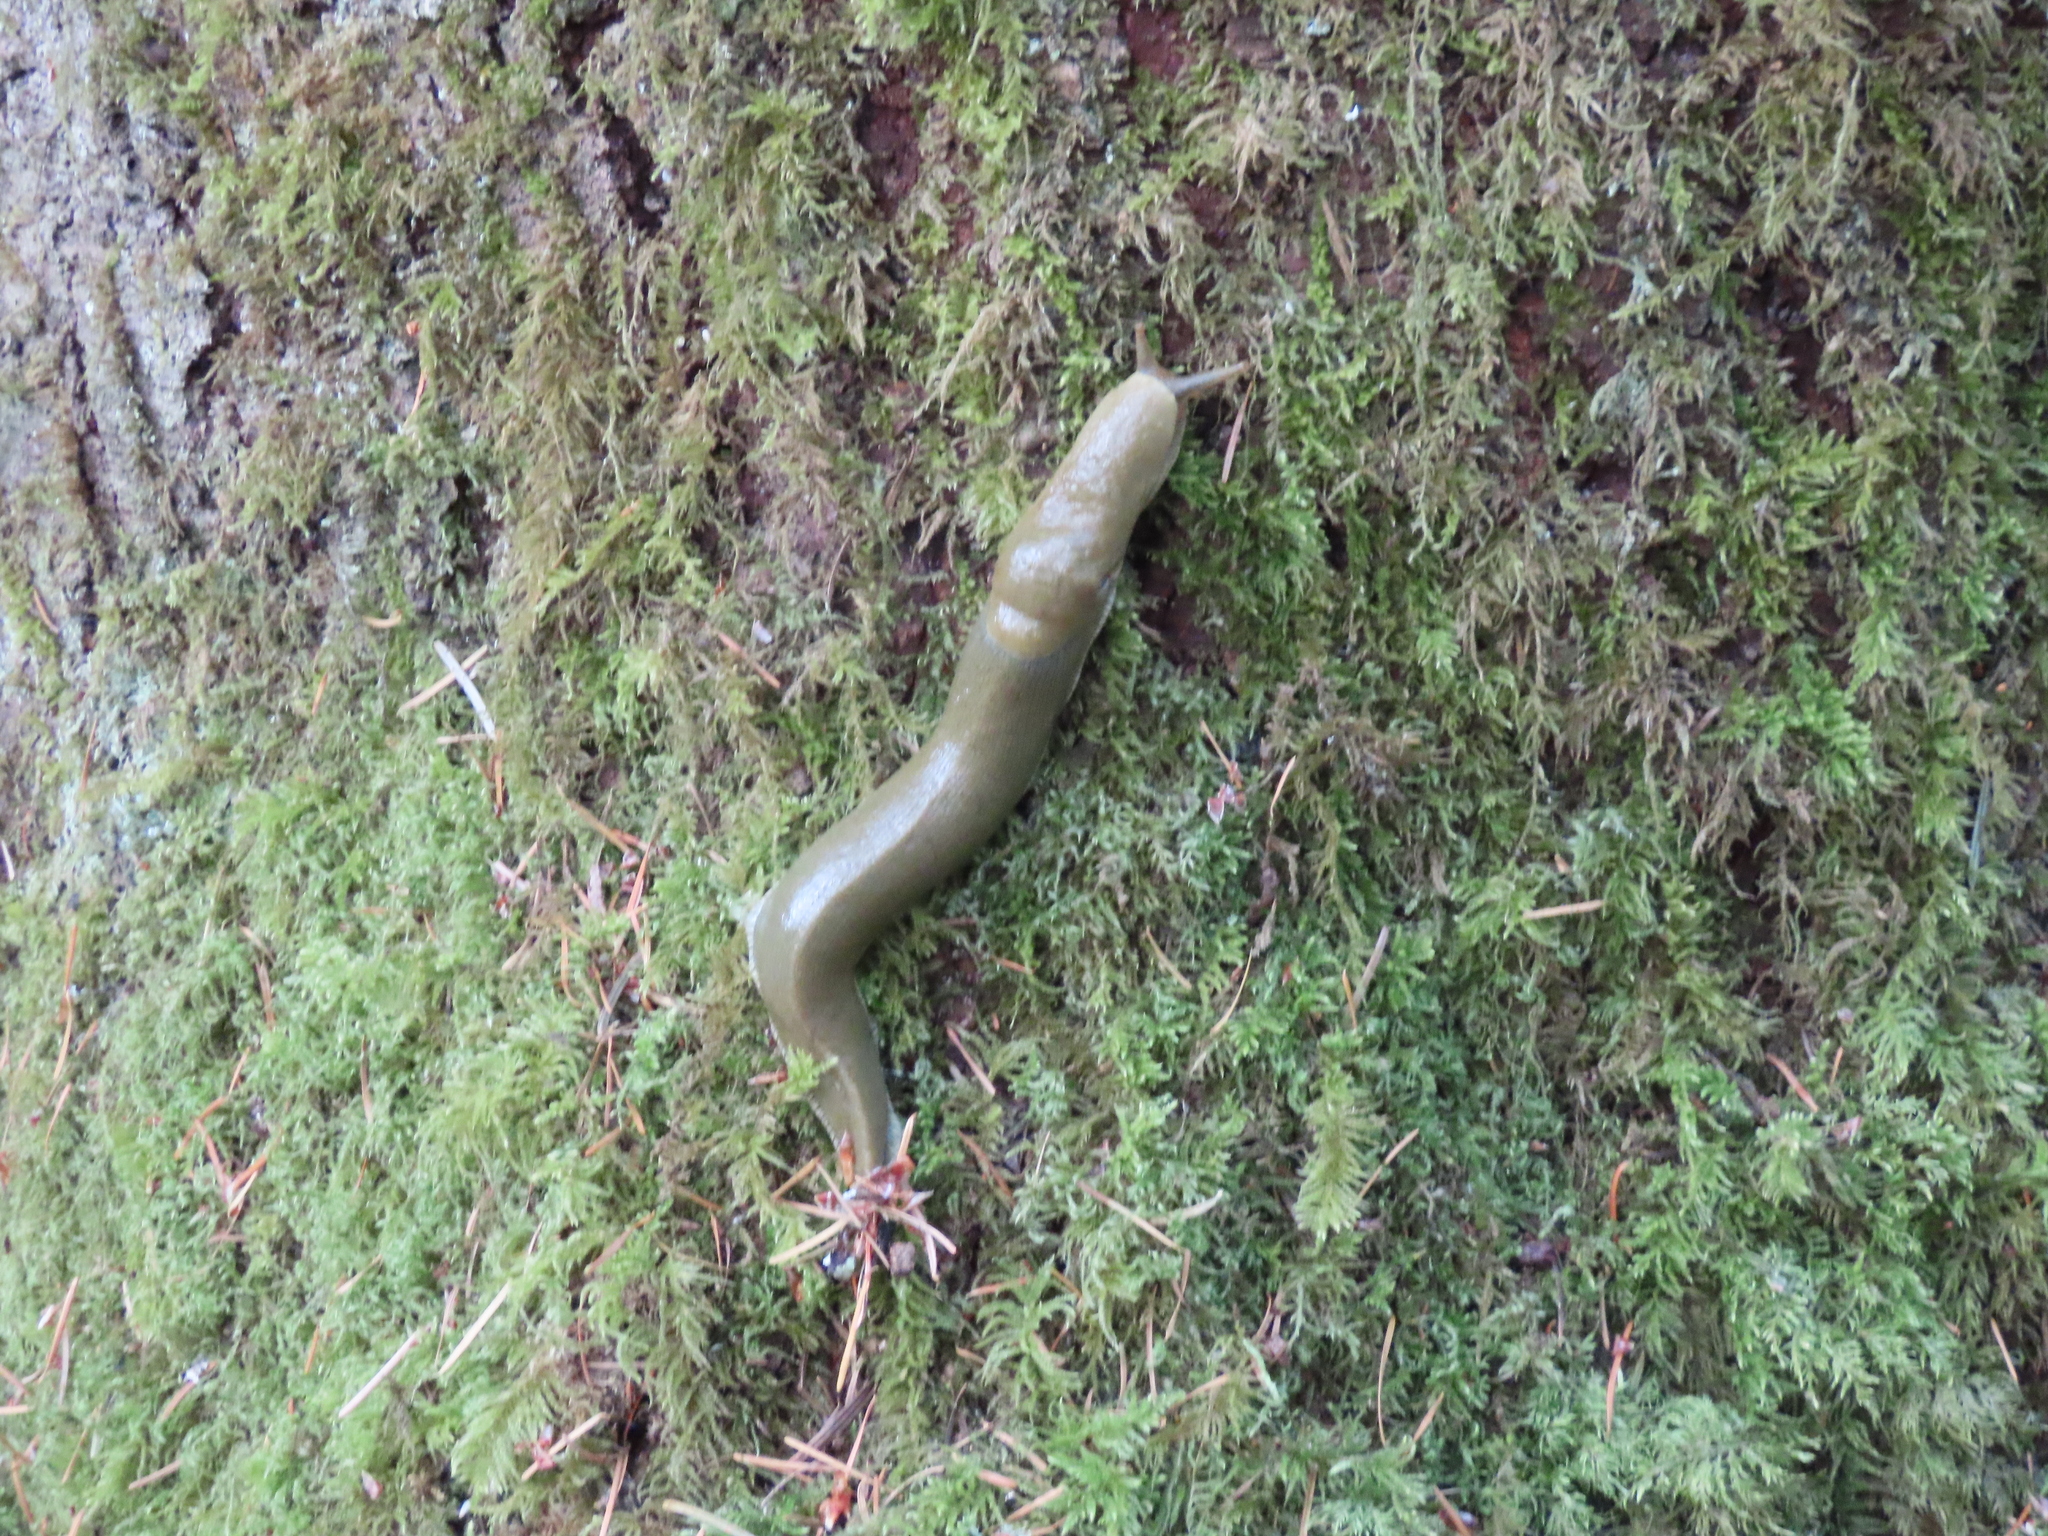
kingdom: Animalia
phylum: Mollusca
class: Gastropoda
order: Stylommatophora
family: Ariolimacidae
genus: Ariolimax
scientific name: Ariolimax columbianus
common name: Pacific banana slug
